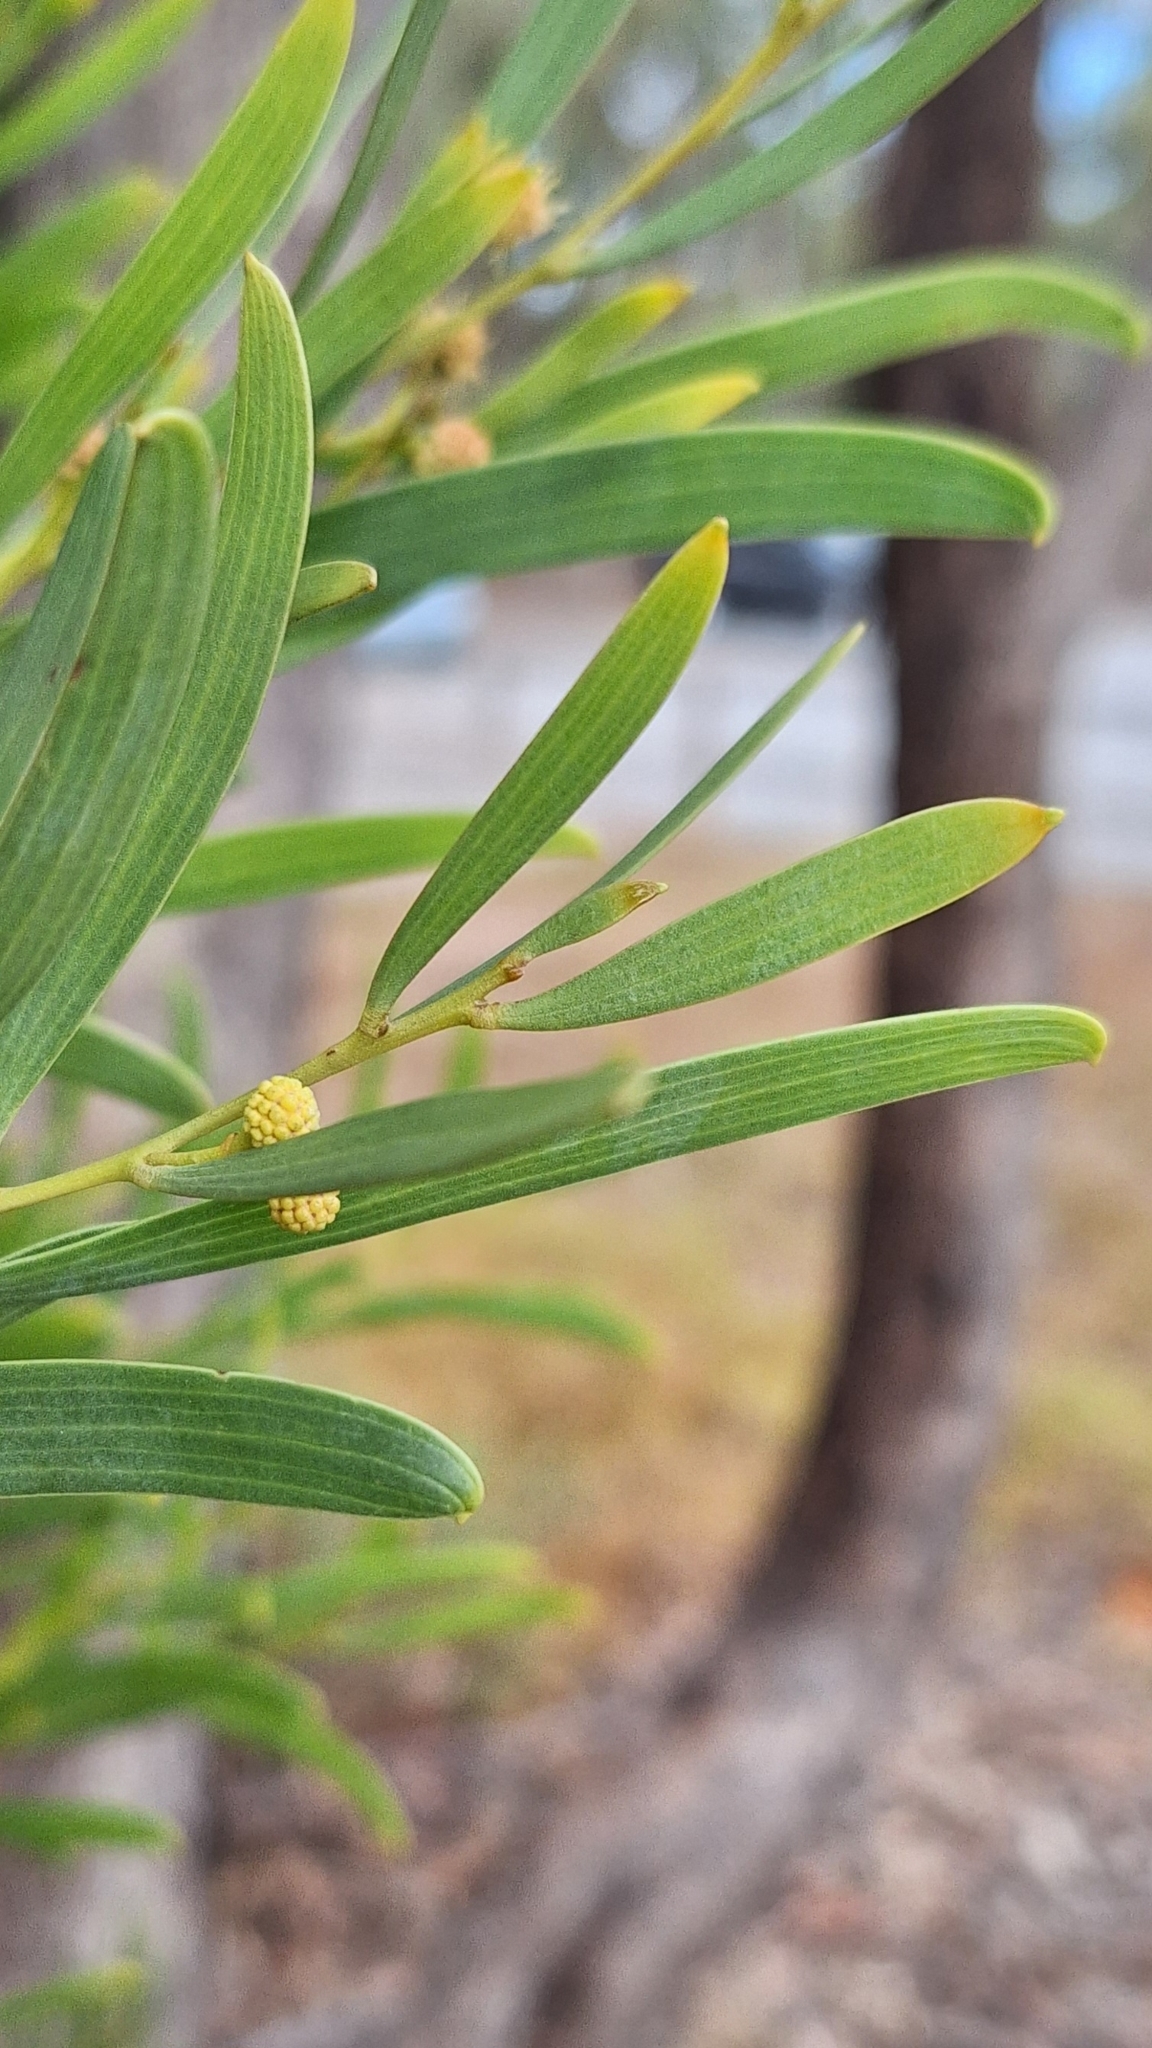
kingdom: Plantae
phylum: Tracheophyta
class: Magnoliopsida
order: Fabales
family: Fabaceae
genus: Acacia
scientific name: Acacia cyclops
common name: Coastal wattle
